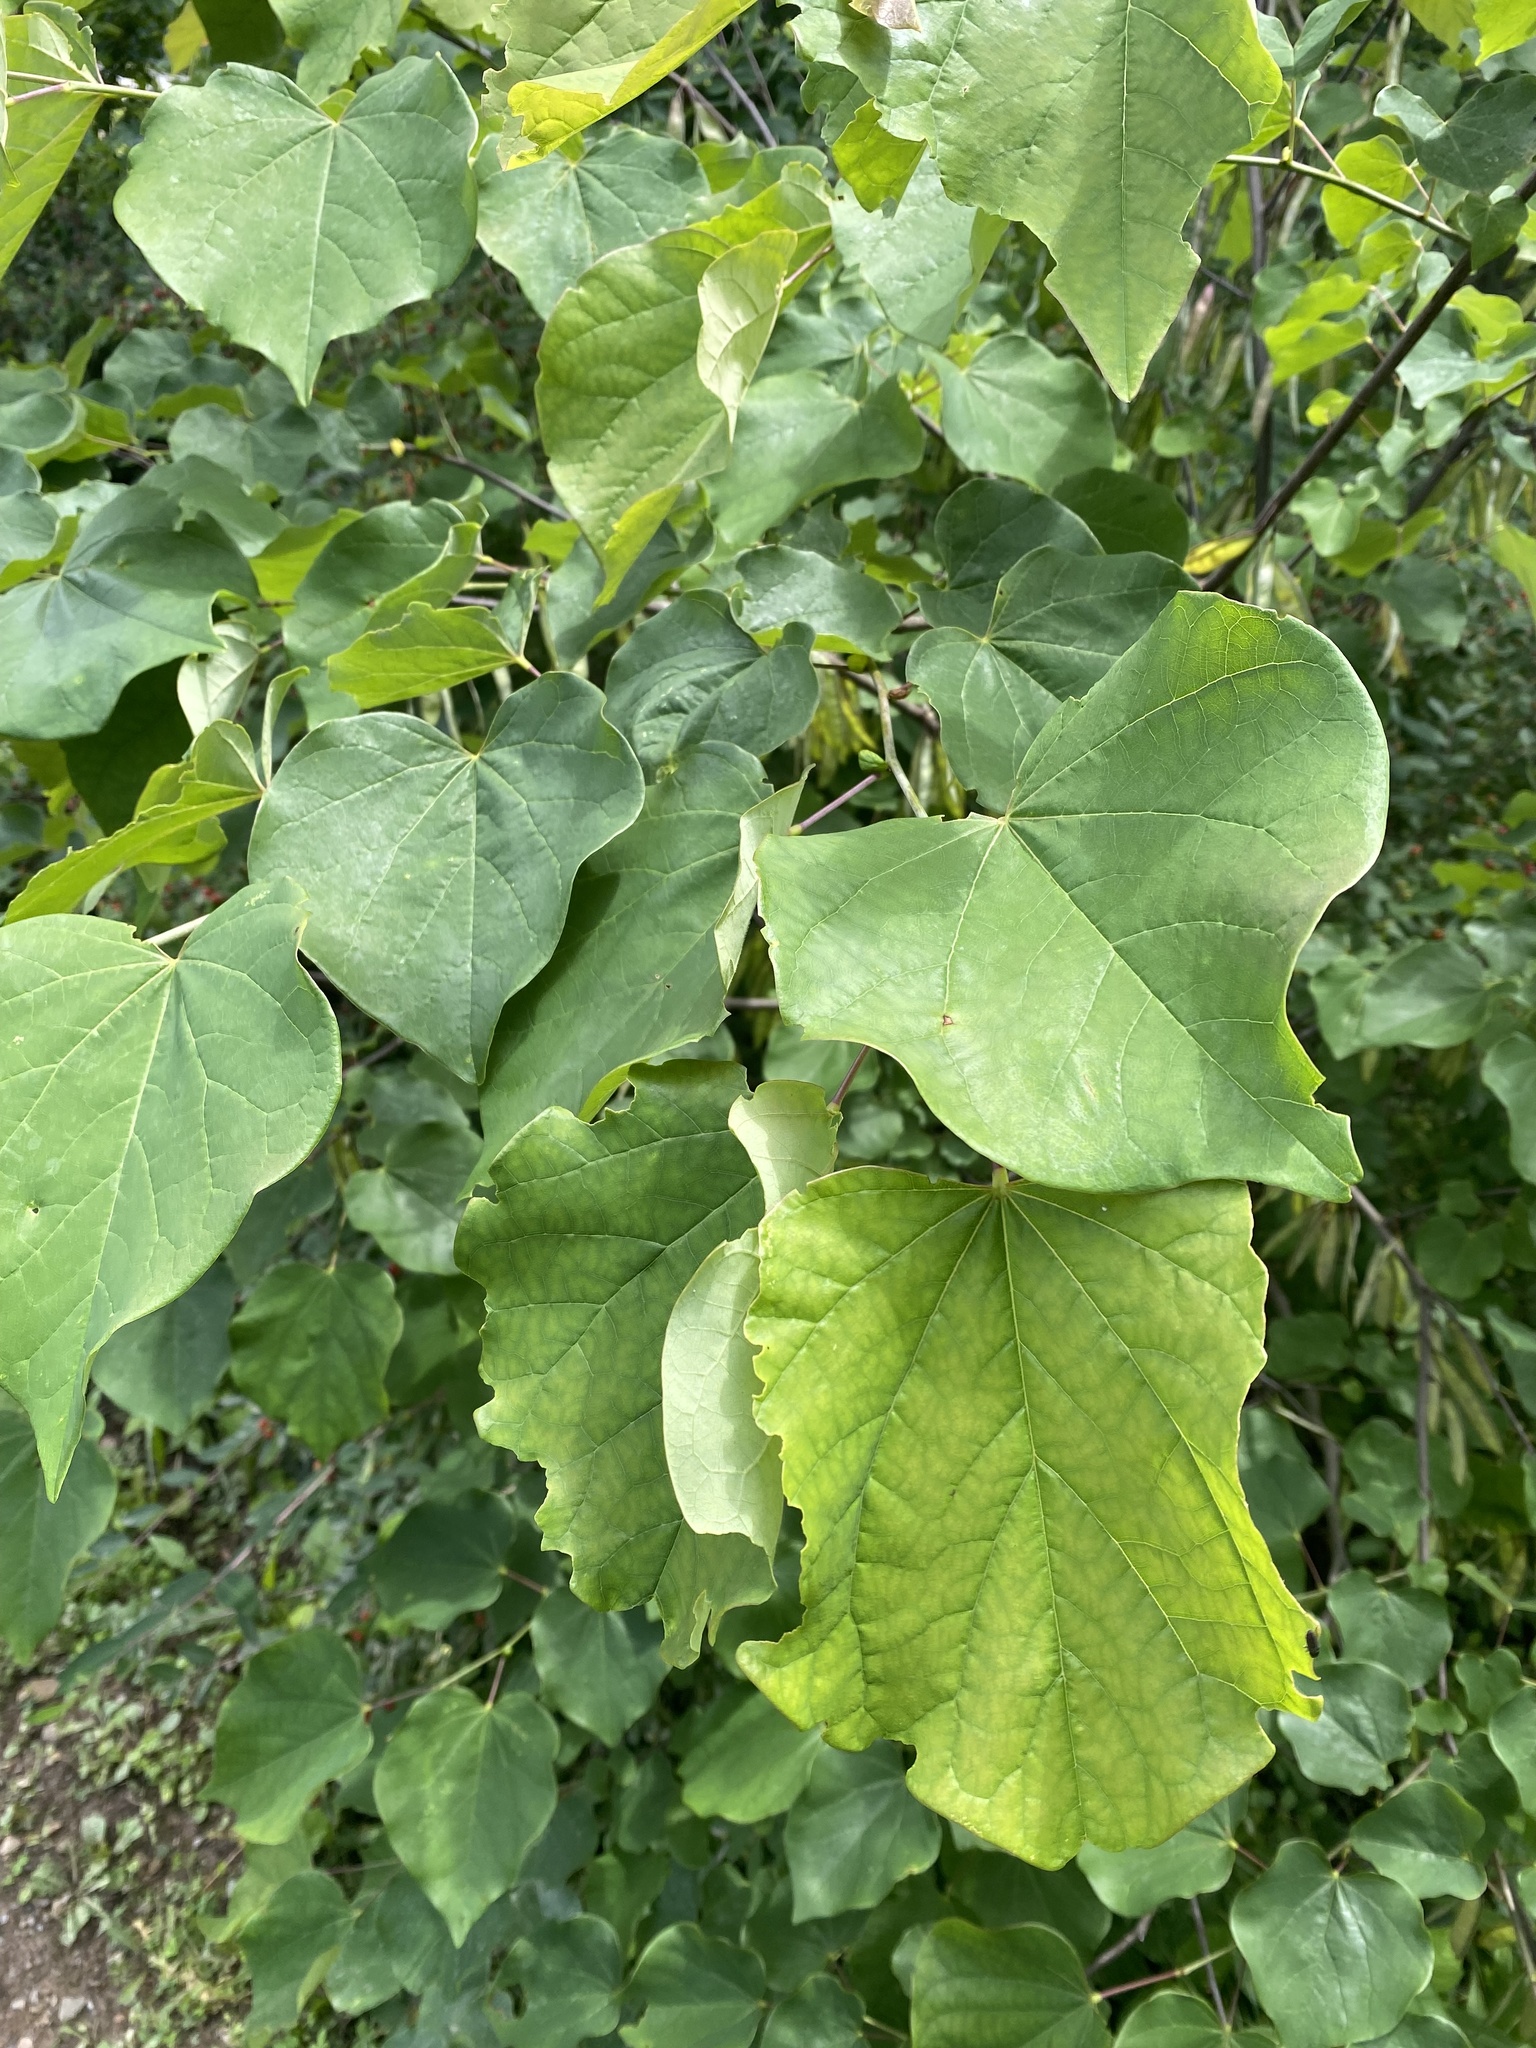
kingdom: Plantae
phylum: Tracheophyta
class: Magnoliopsida
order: Fabales
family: Fabaceae
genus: Cercis
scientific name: Cercis canadensis
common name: Eastern redbud
